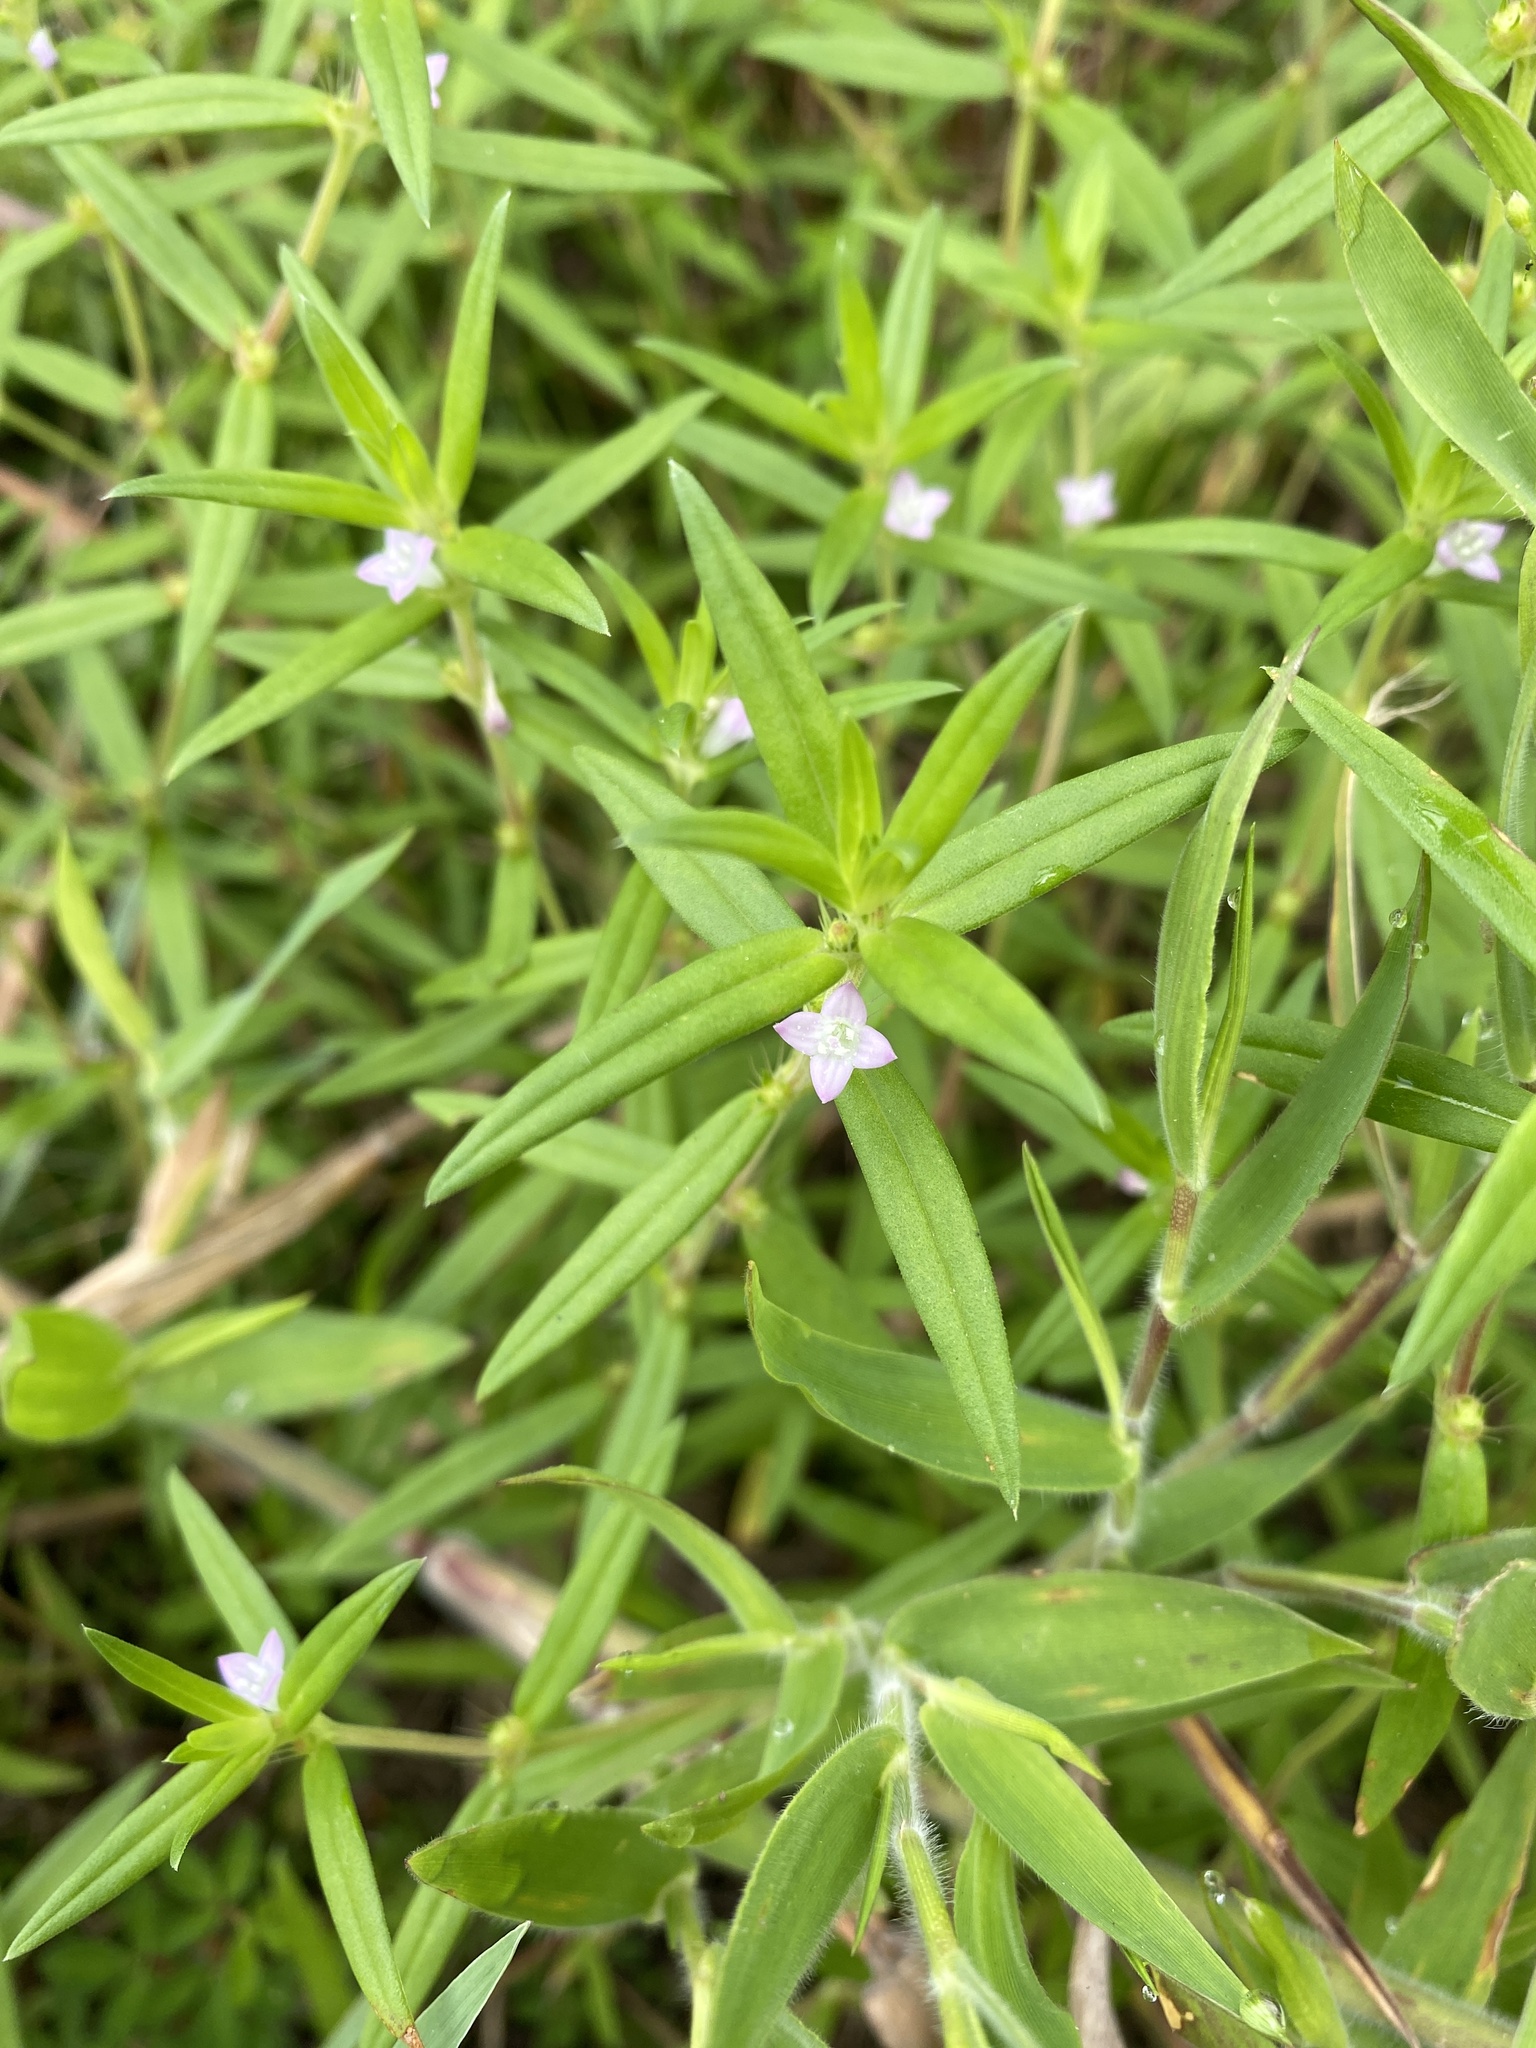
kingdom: Plantae
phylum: Tracheophyta
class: Magnoliopsida
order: Gentianales
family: Rubiaceae
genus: Hexasepalum
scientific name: Hexasepalum teres
